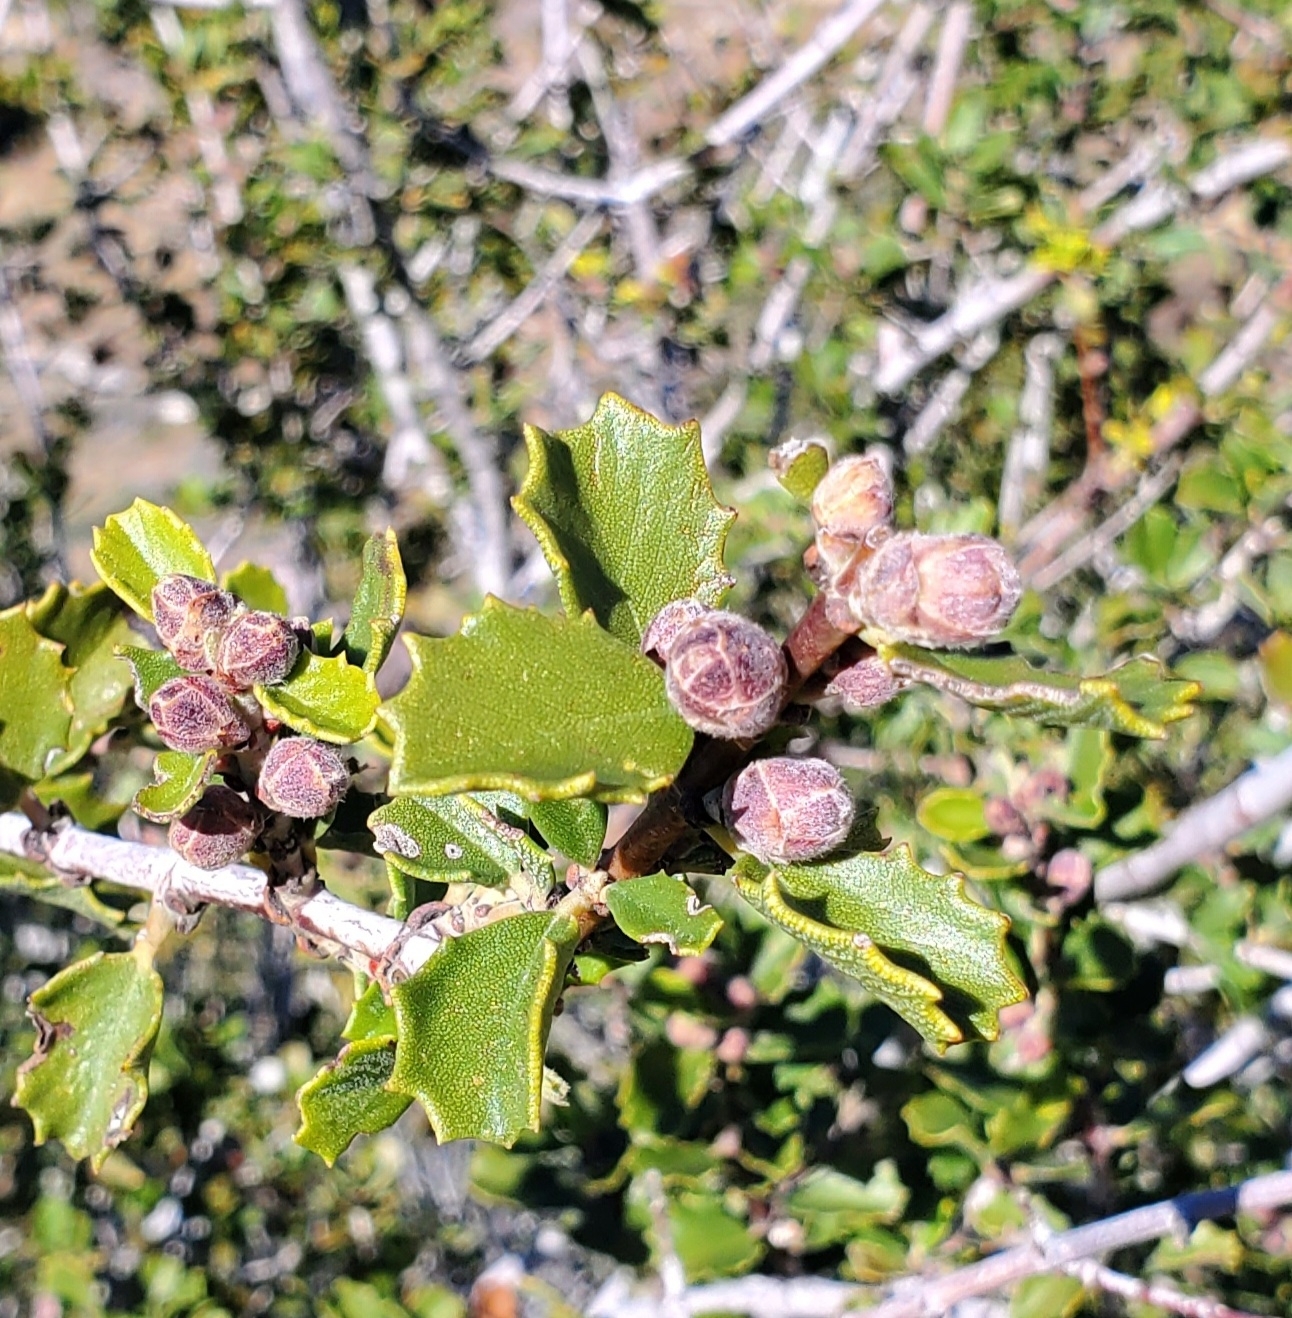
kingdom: Plantae
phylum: Tracheophyta
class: Magnoliopsida
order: Rosales
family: Rhamnaceae
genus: Ceanothus
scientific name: Ceanothus perplexans
